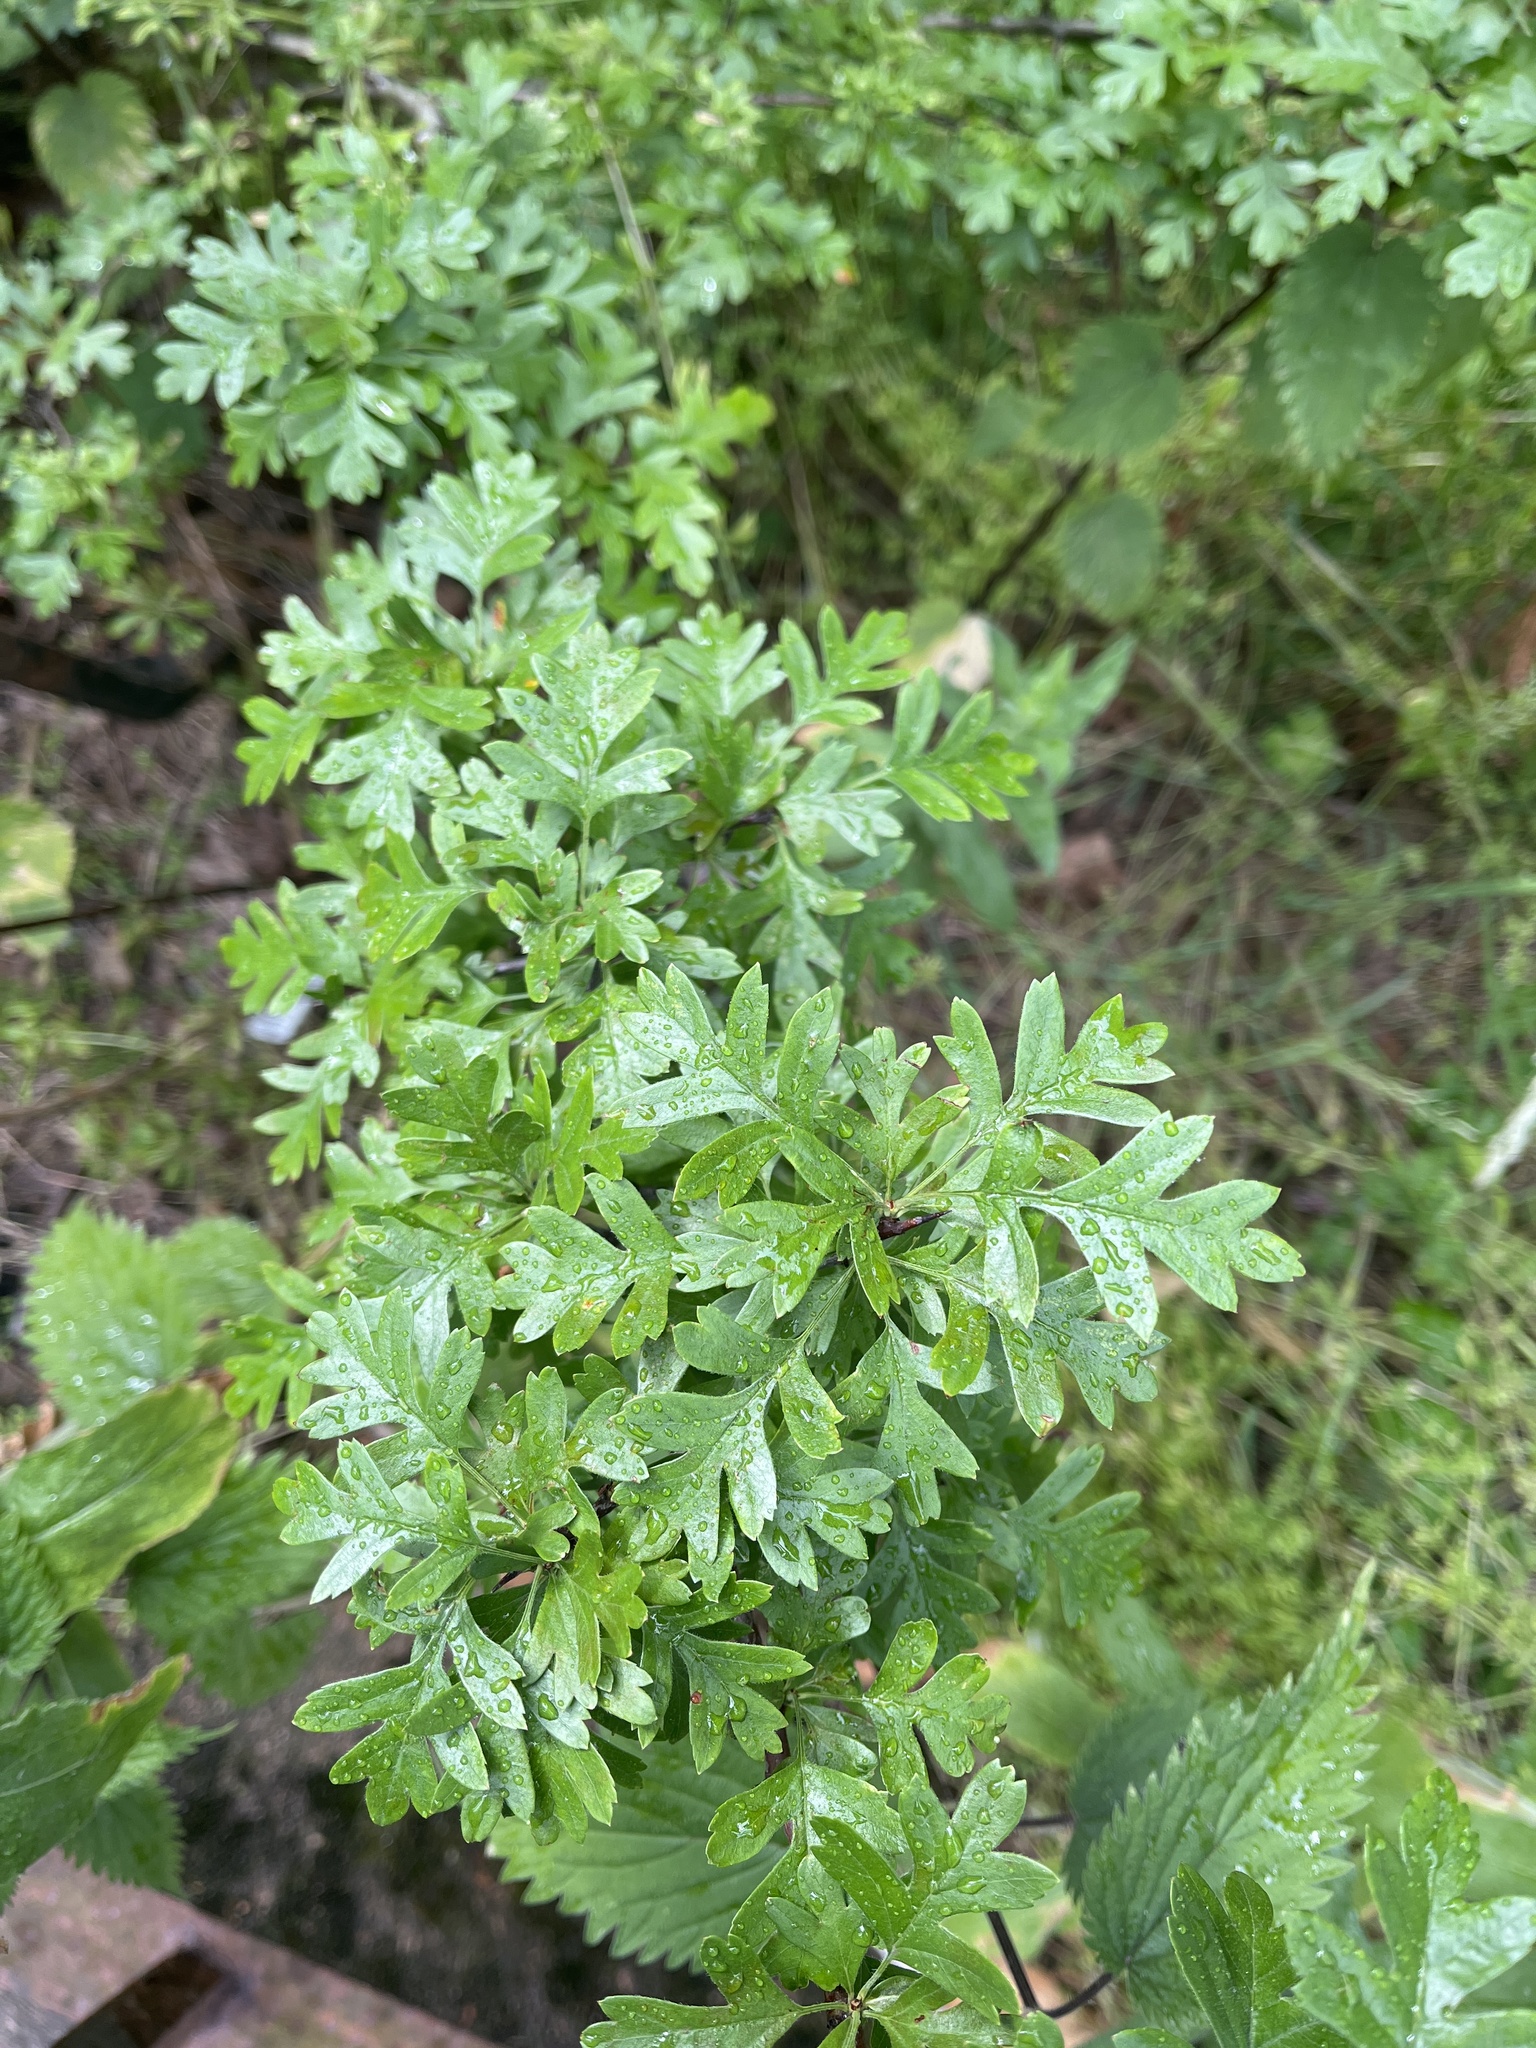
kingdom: Plantae
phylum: Tracheophyta
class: Magnoliopsida
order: Rosales
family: Rosaceae
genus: Crataegus
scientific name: Crataegus monogyna
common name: Hawthorn
